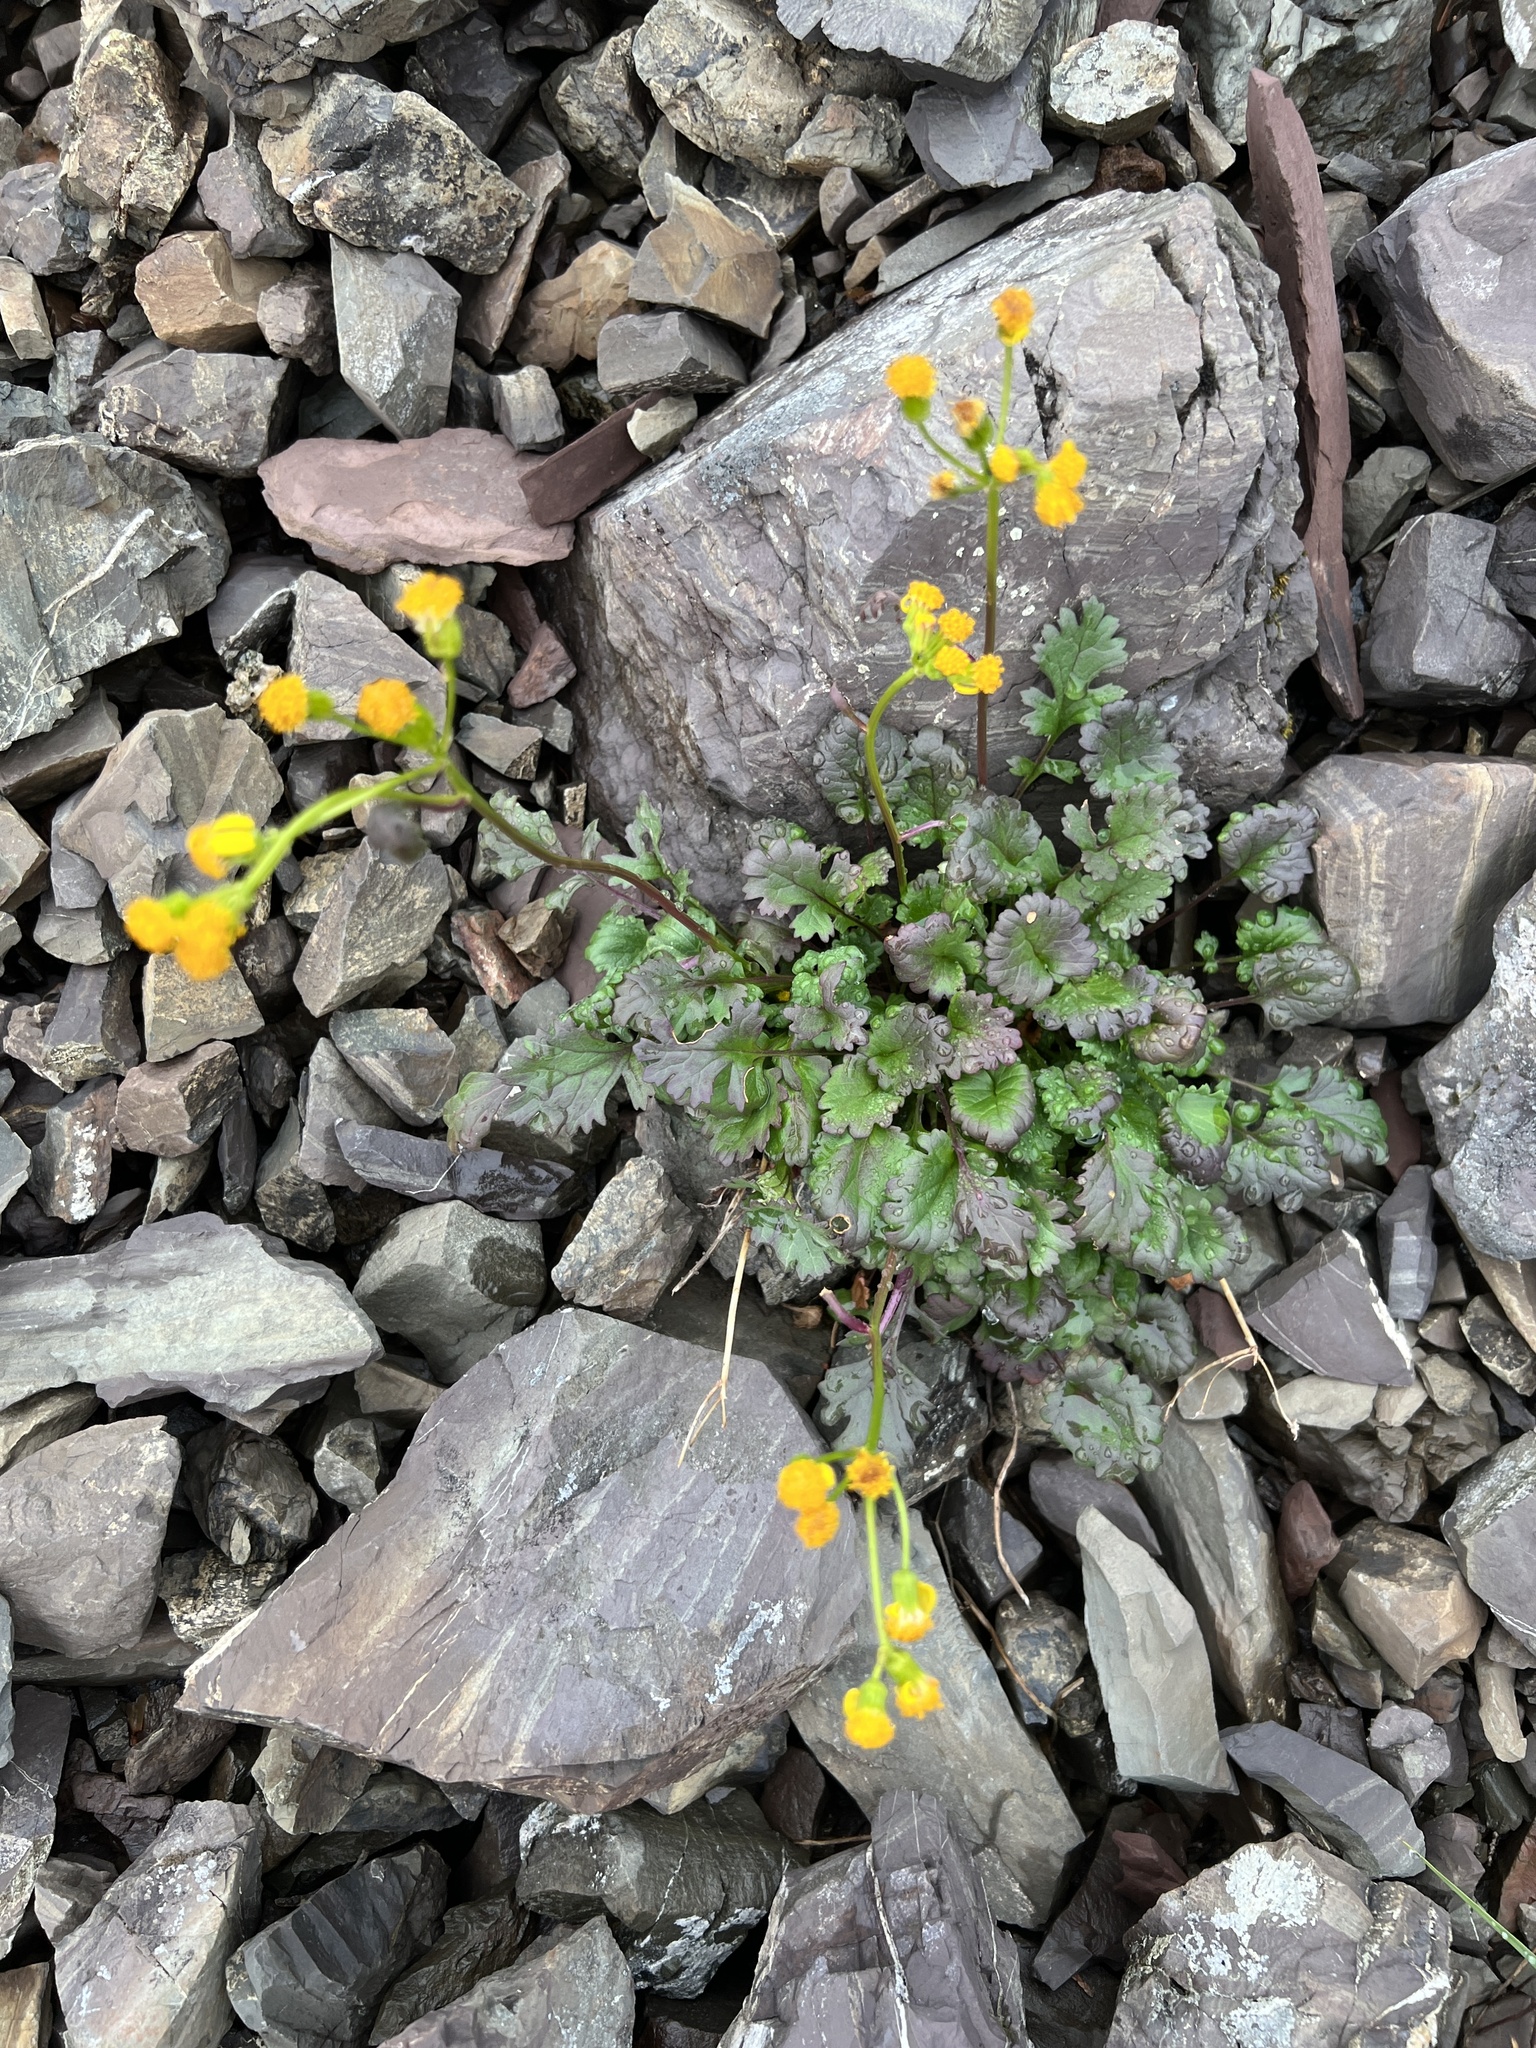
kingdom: Plantae
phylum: Tracheophyta
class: Magnoliopsida
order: Asterales
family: Asteraceae
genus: Packera
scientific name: Packera flettii
